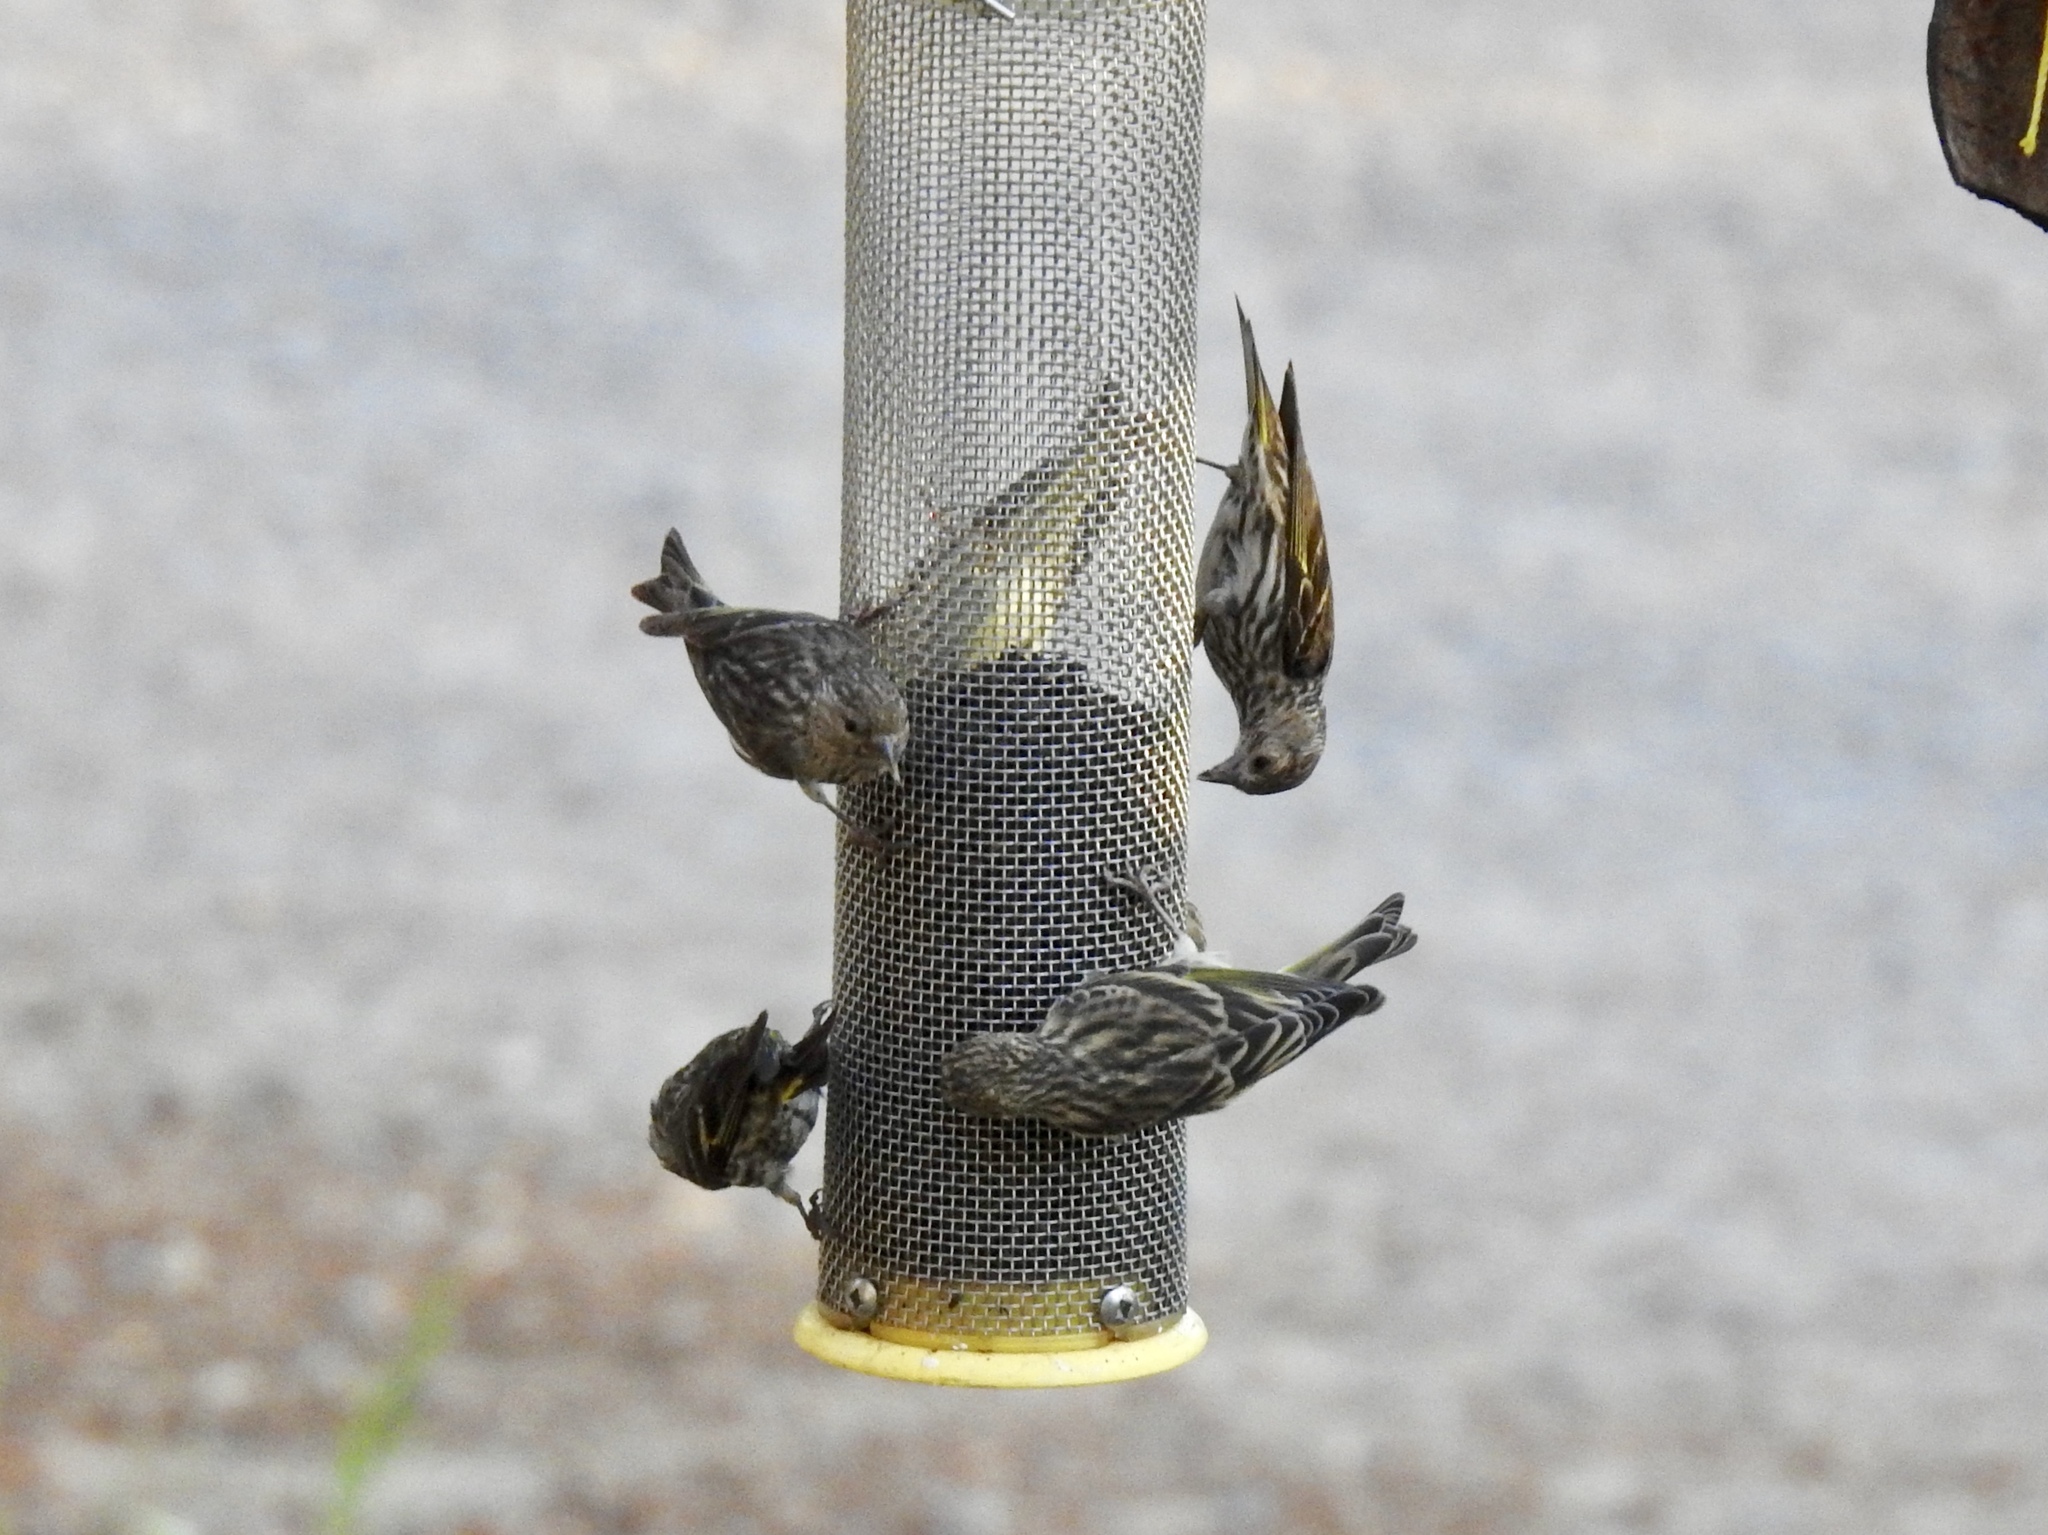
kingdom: Animalia
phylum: Chordata
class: Aves
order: Passeriformes
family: Fringillidae
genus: Spinus
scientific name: Spinus pinus
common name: Pine siskin
